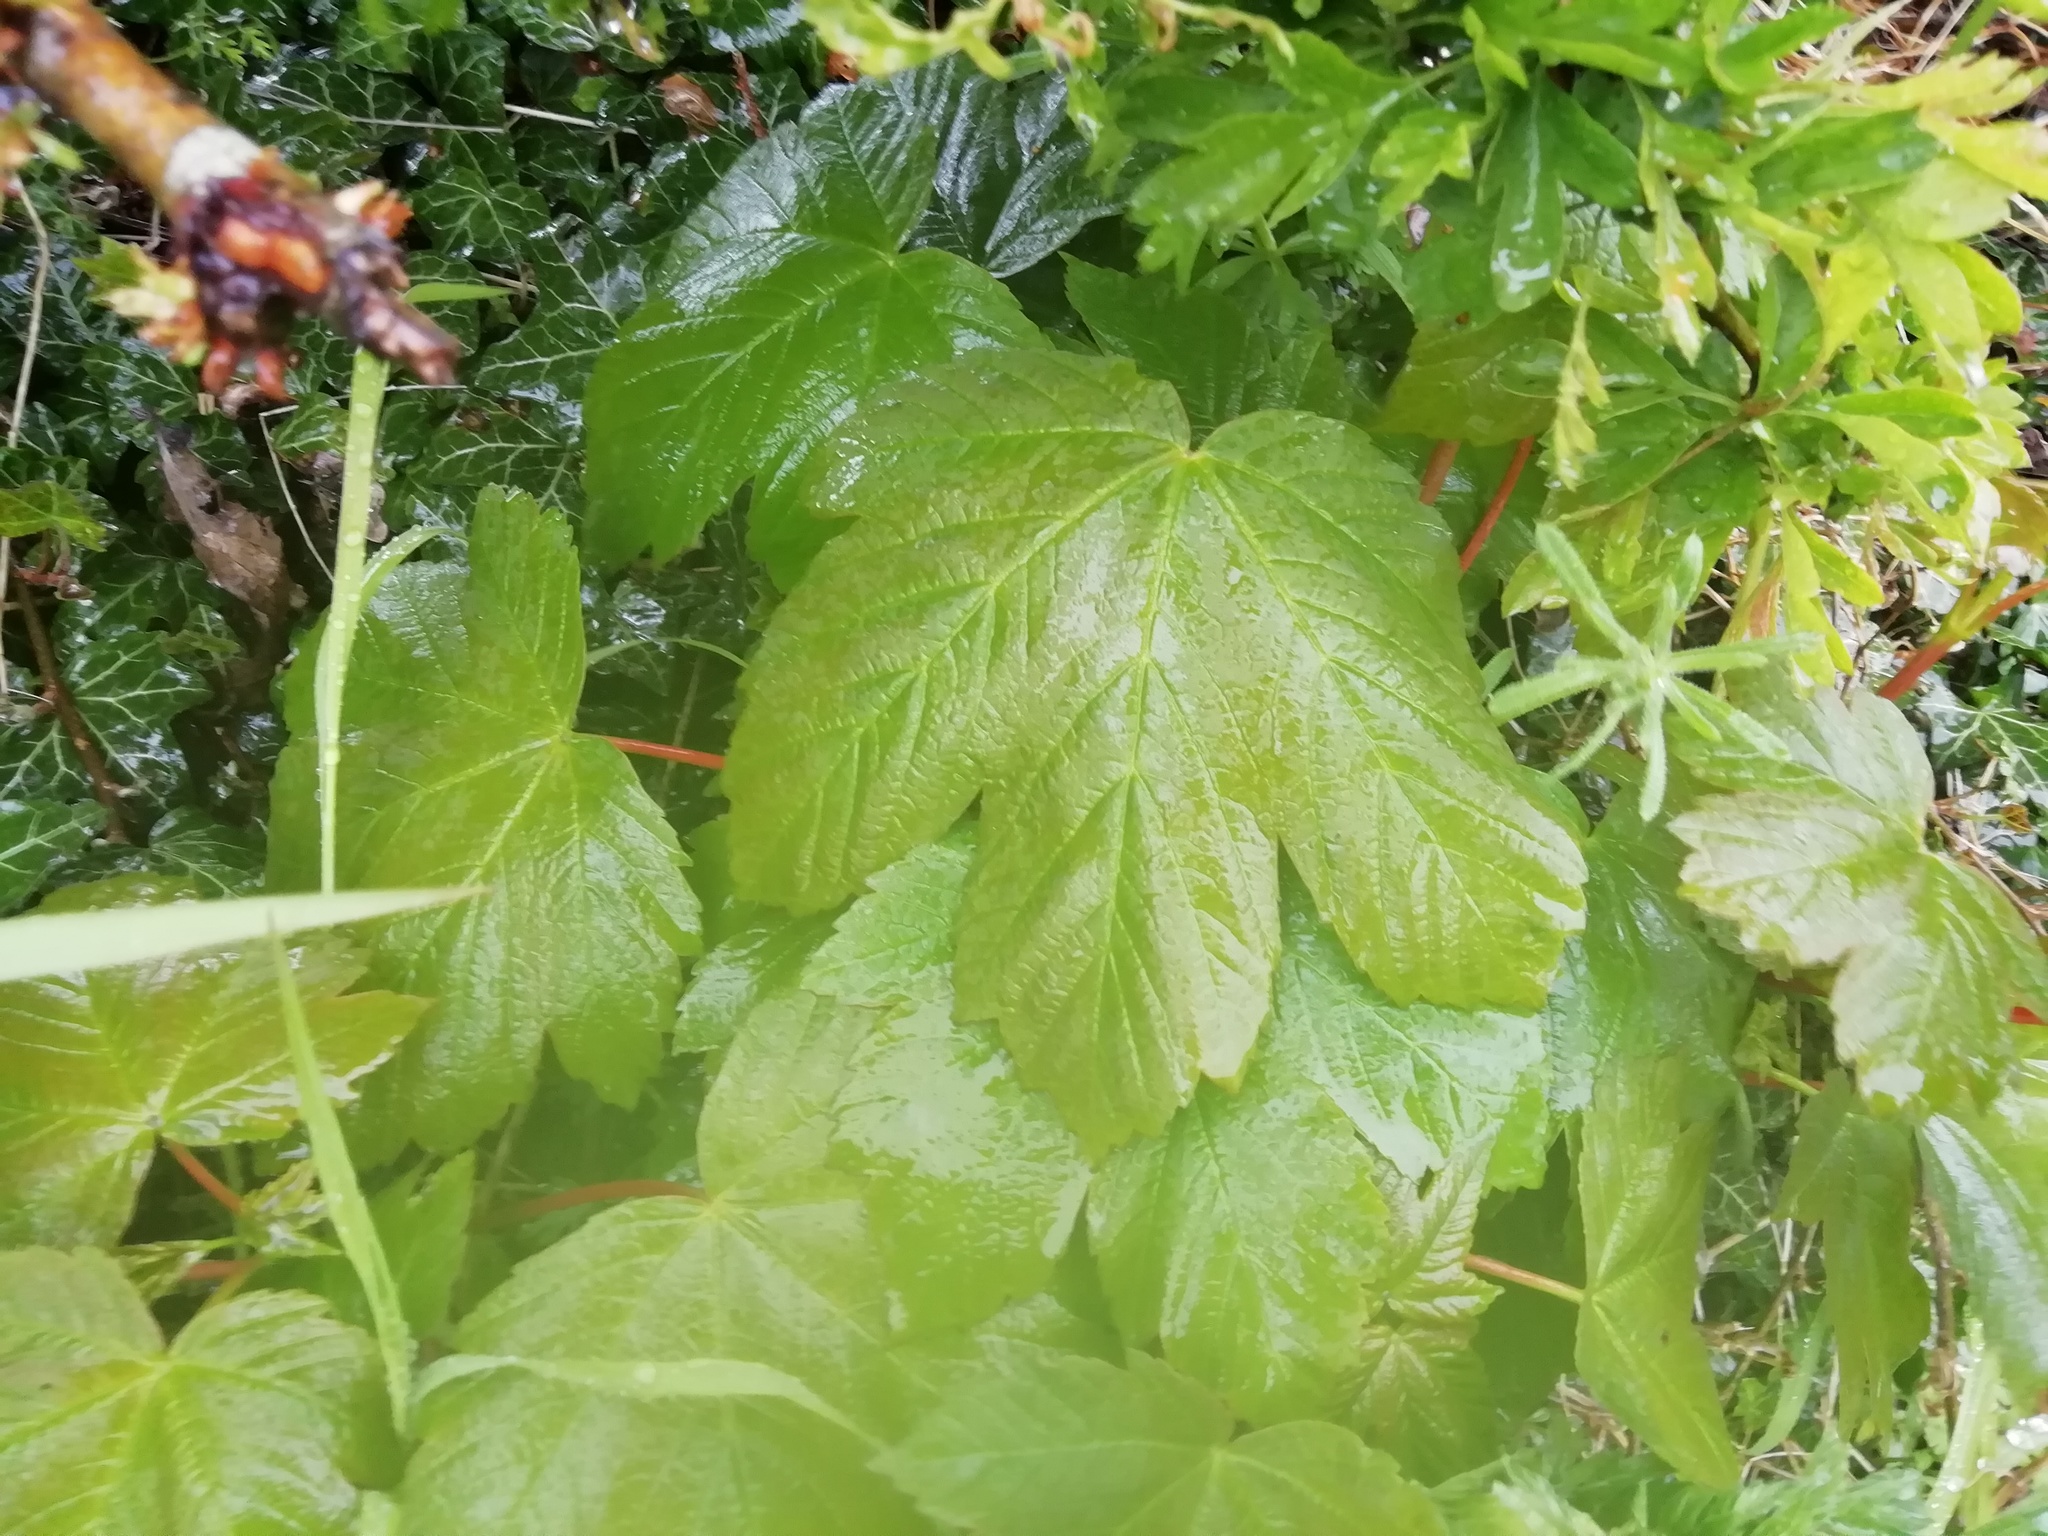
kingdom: Plantae
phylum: Tracheophyta
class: Magnoliopsida
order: Sapindales
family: Sapindaceae
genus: Acer
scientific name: Acer pseudoplatanus
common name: Sycamore
